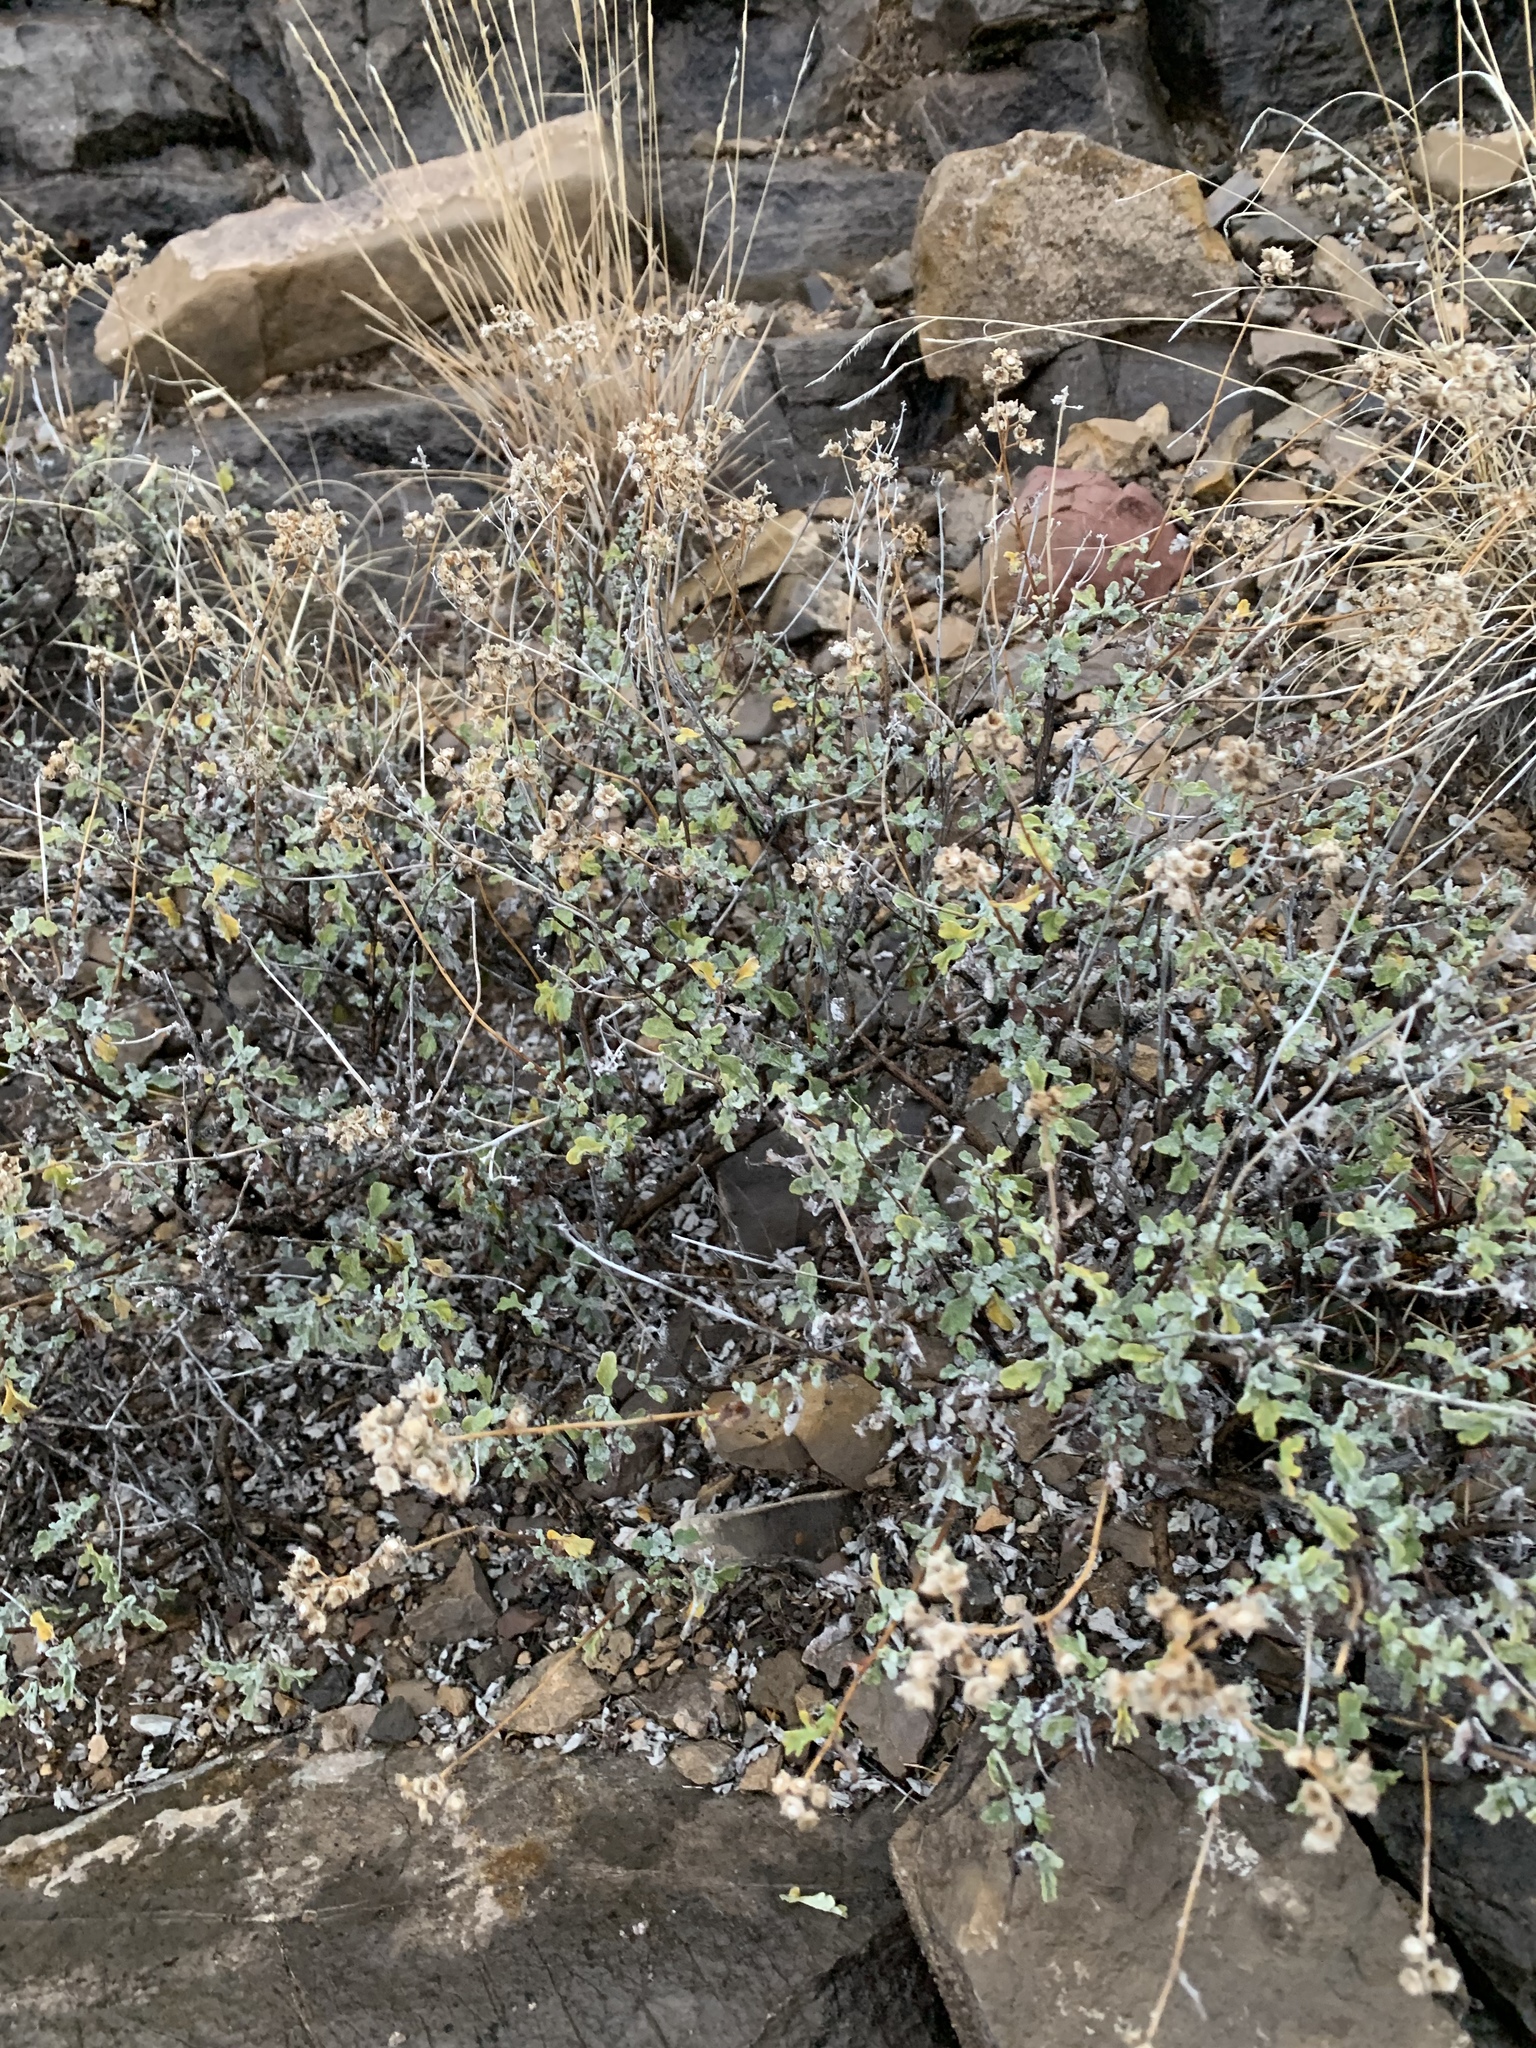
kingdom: Plantae
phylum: Tracheophyta
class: Magnoliopsida
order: Asterales
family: Asteraceae
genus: Parthenium
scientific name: Parthenium incanum
